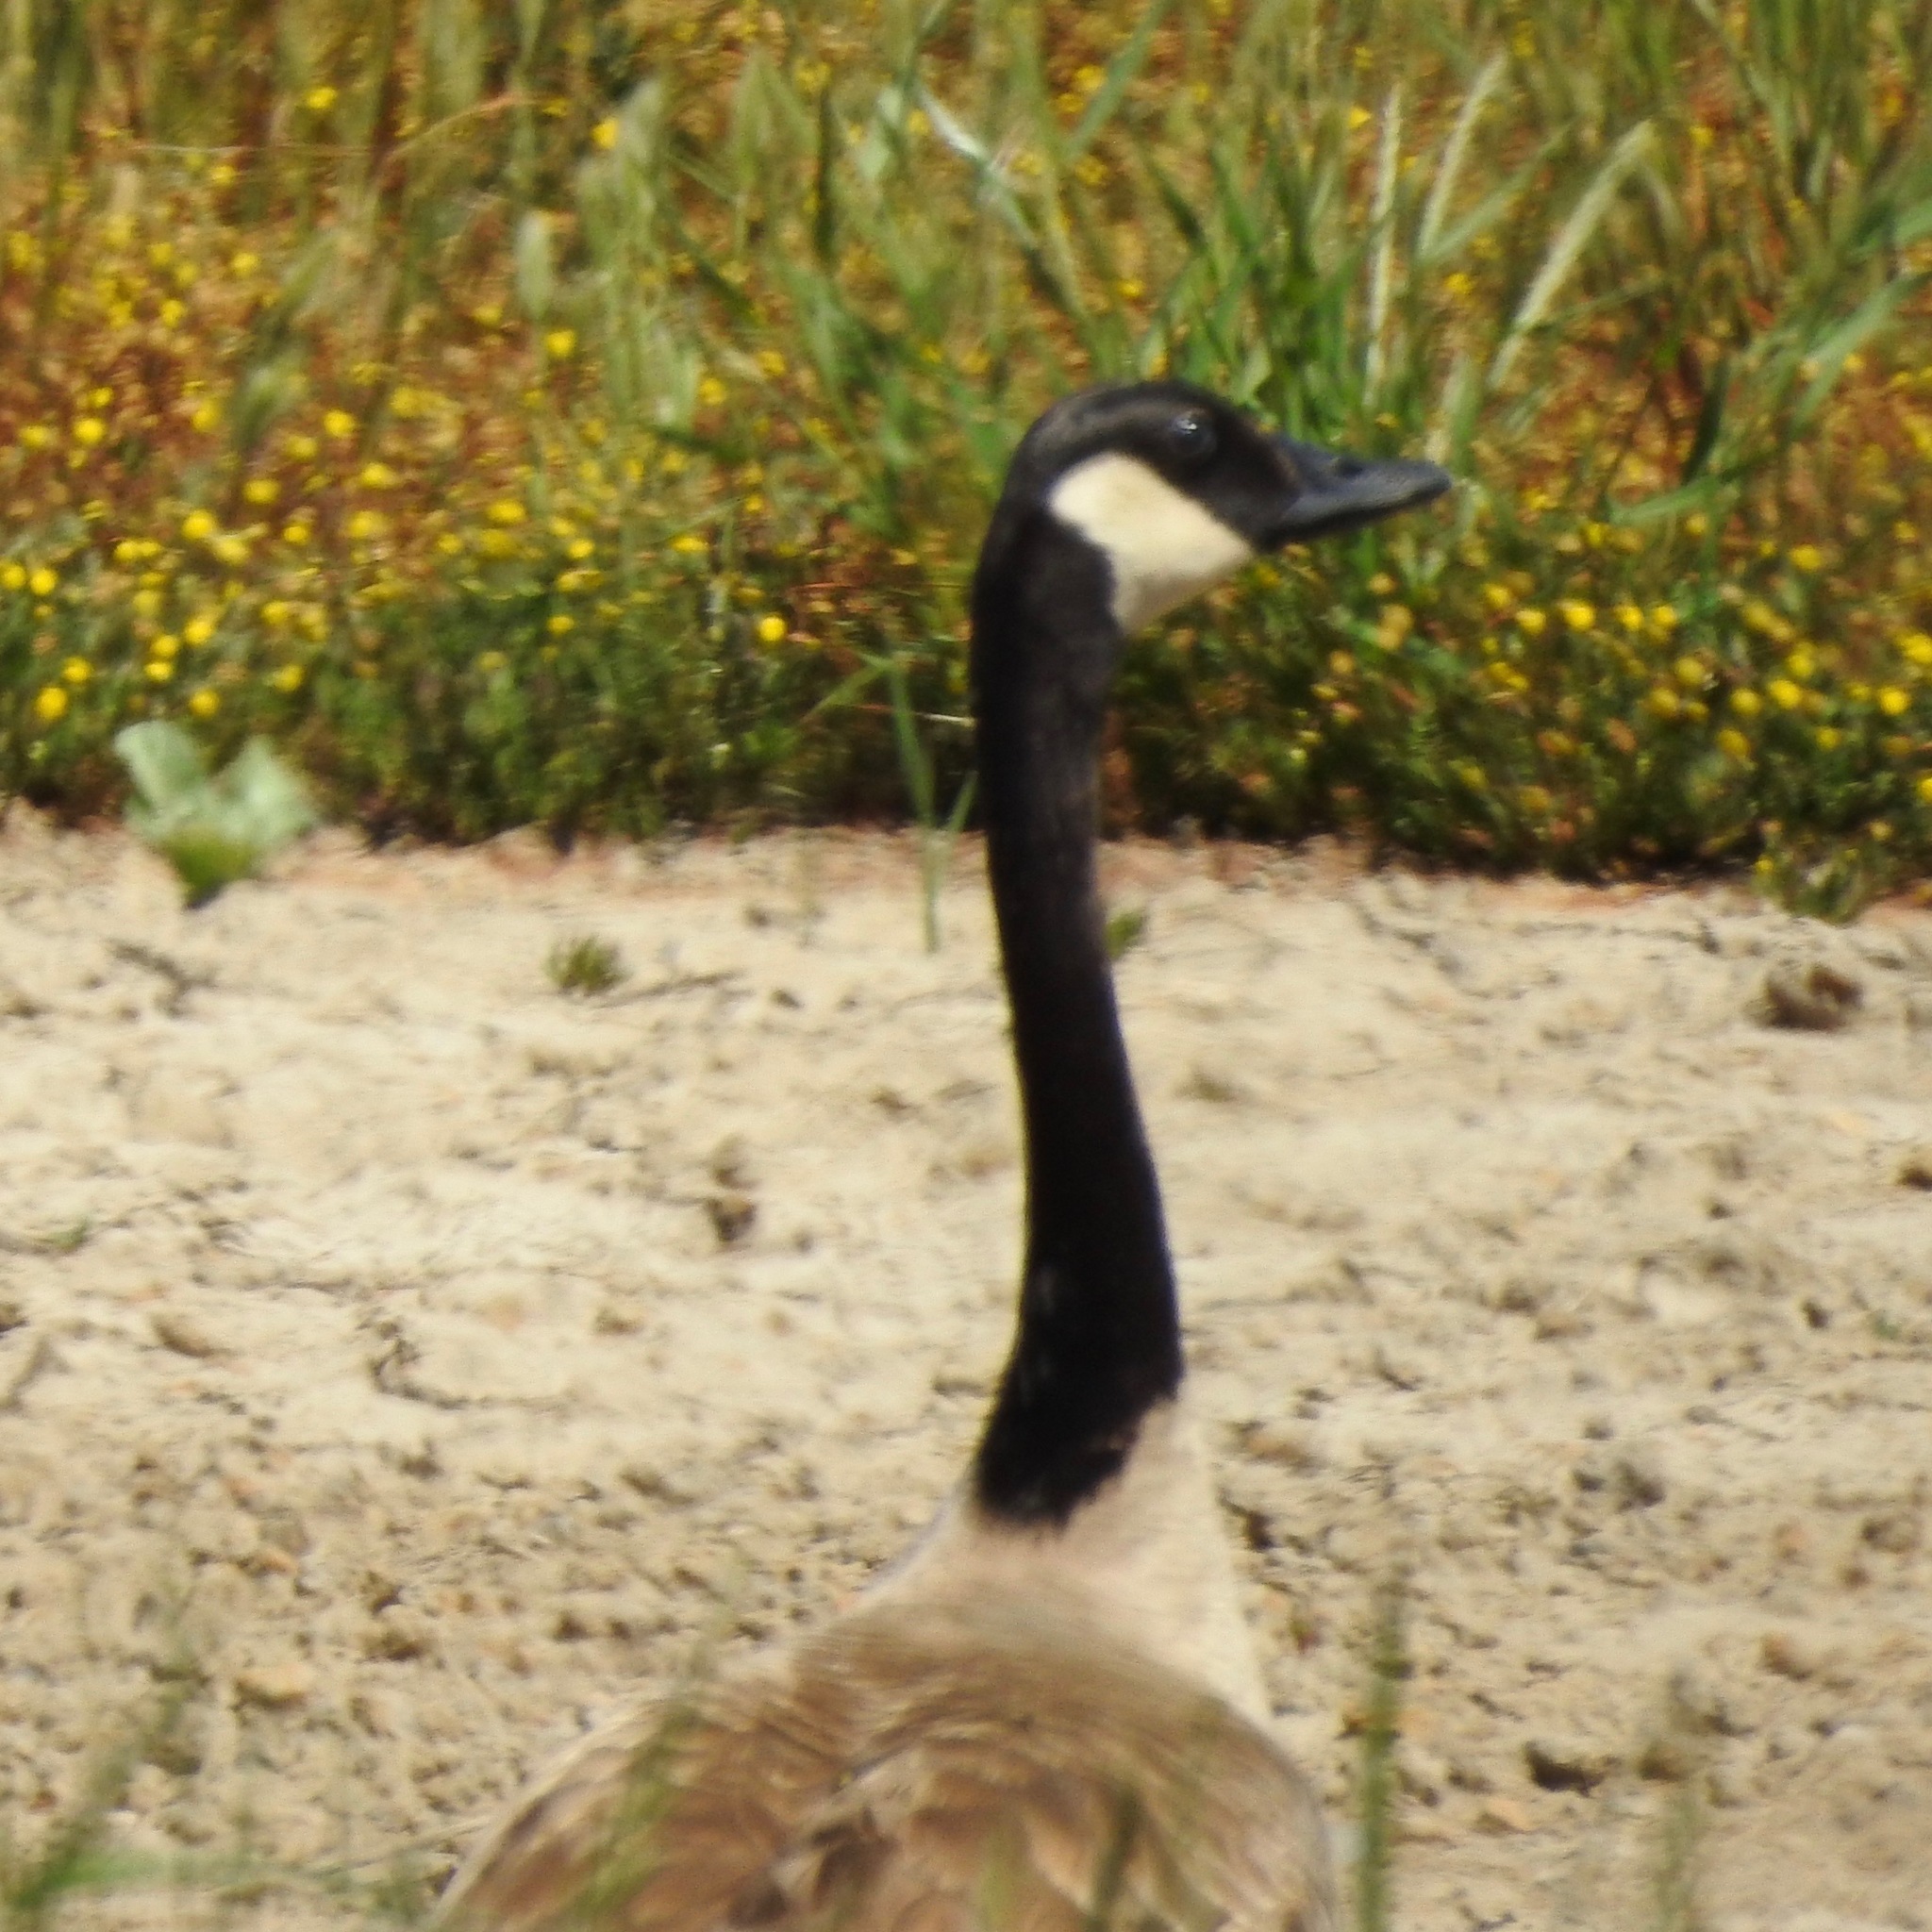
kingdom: Animalia
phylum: Chordata
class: Aves
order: Anseriformes
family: Anatidae
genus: Branta
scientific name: Branta canadensis
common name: Canada goose
